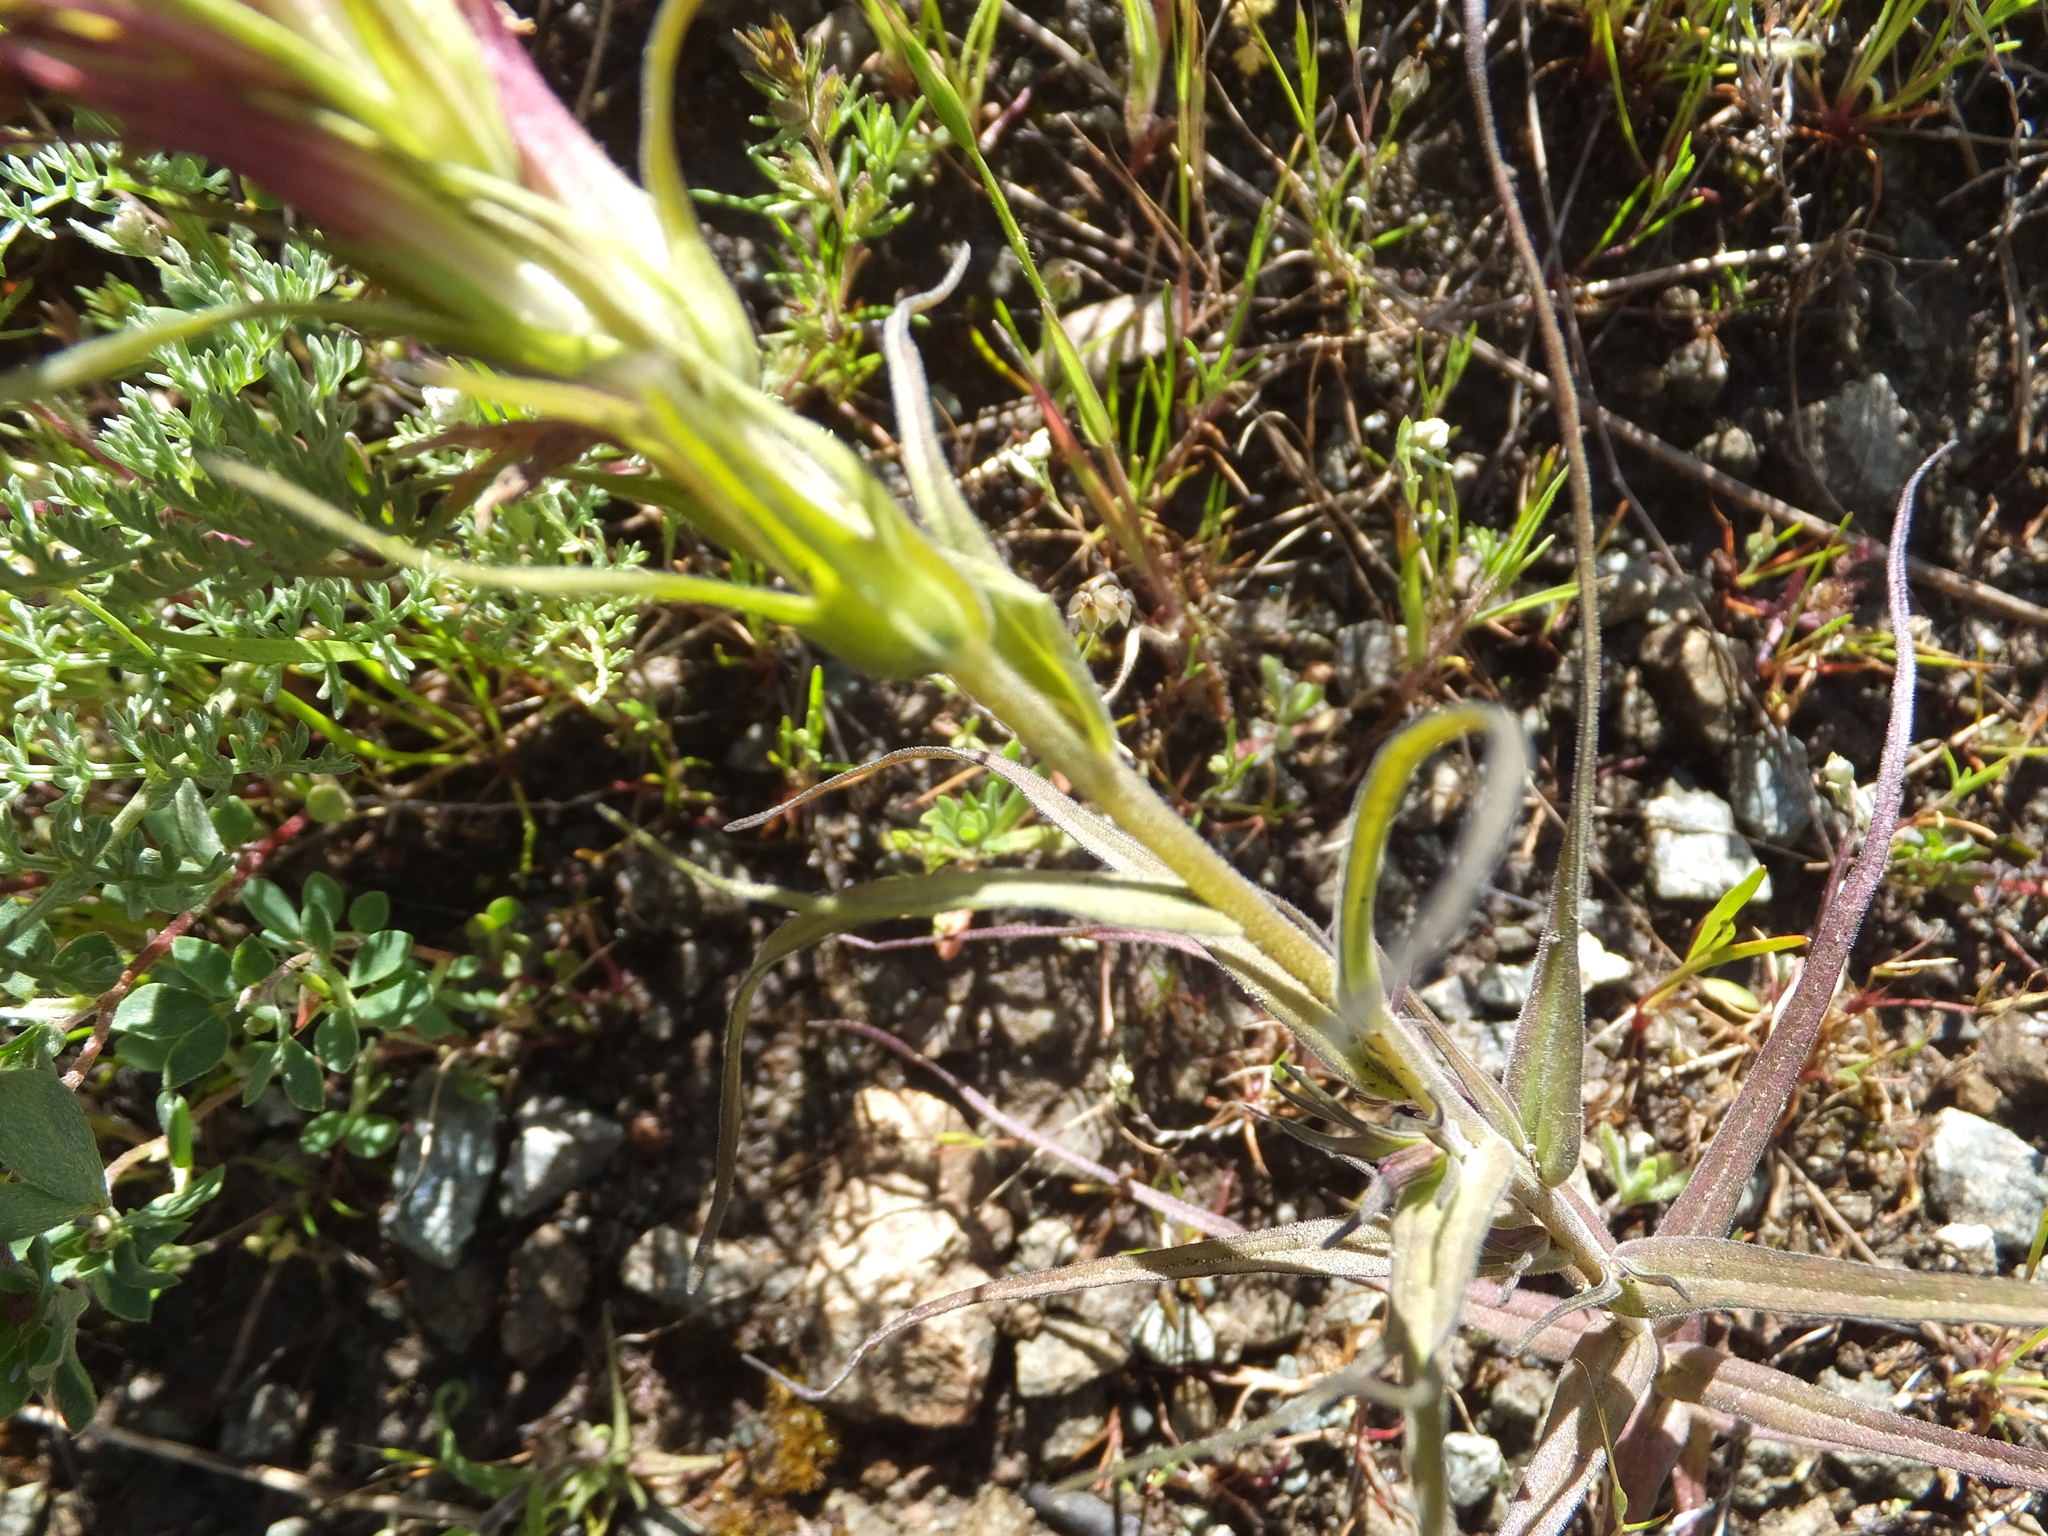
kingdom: Plantae
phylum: Tracheophyta
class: Magnoliopsida
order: Lamiales
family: Orobanchaceae
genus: Castilleja
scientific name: Castilleja densiflora
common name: Dense-flower indian paintbrush
